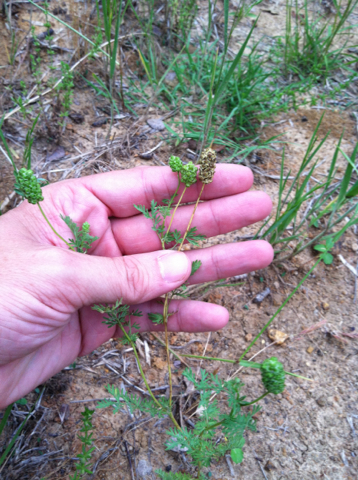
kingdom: Plantae
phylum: Tracheophyta
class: Magnoliopsida
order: Rosales
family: Rosaceae
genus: Poteridium
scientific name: Poteridium annuum
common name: Annual burnet
